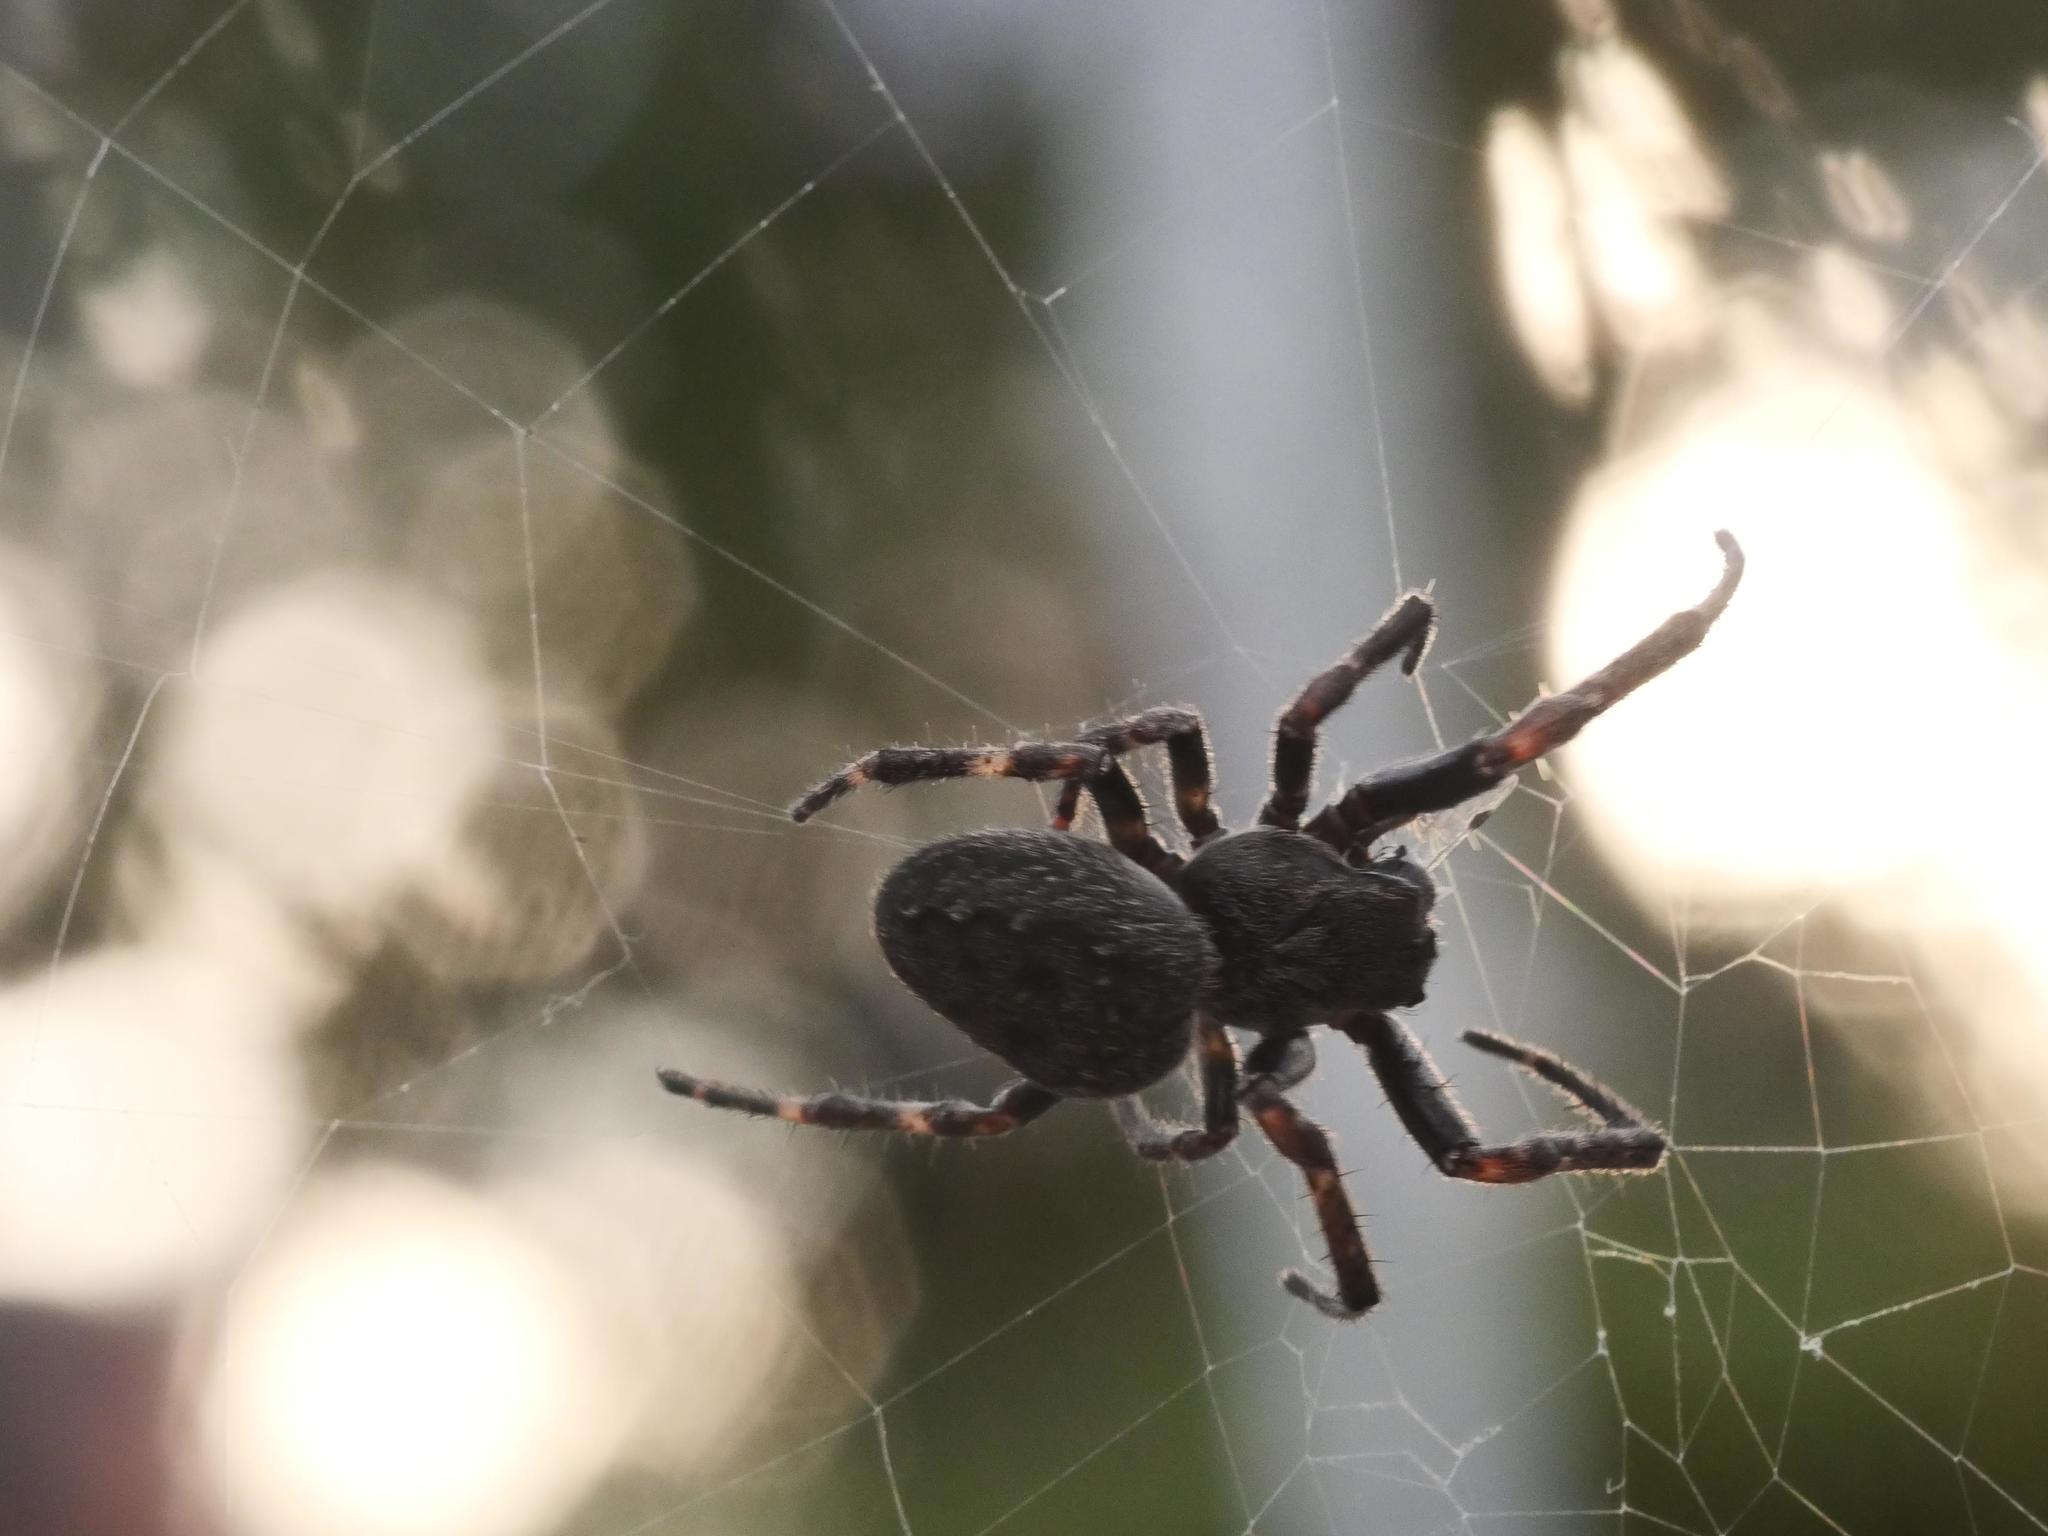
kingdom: Animalia
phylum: Arthropoda
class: Arachnida
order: Araneae
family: Araneidae
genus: Nuctenea
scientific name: Nuctenea umbratica
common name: Toad spider
